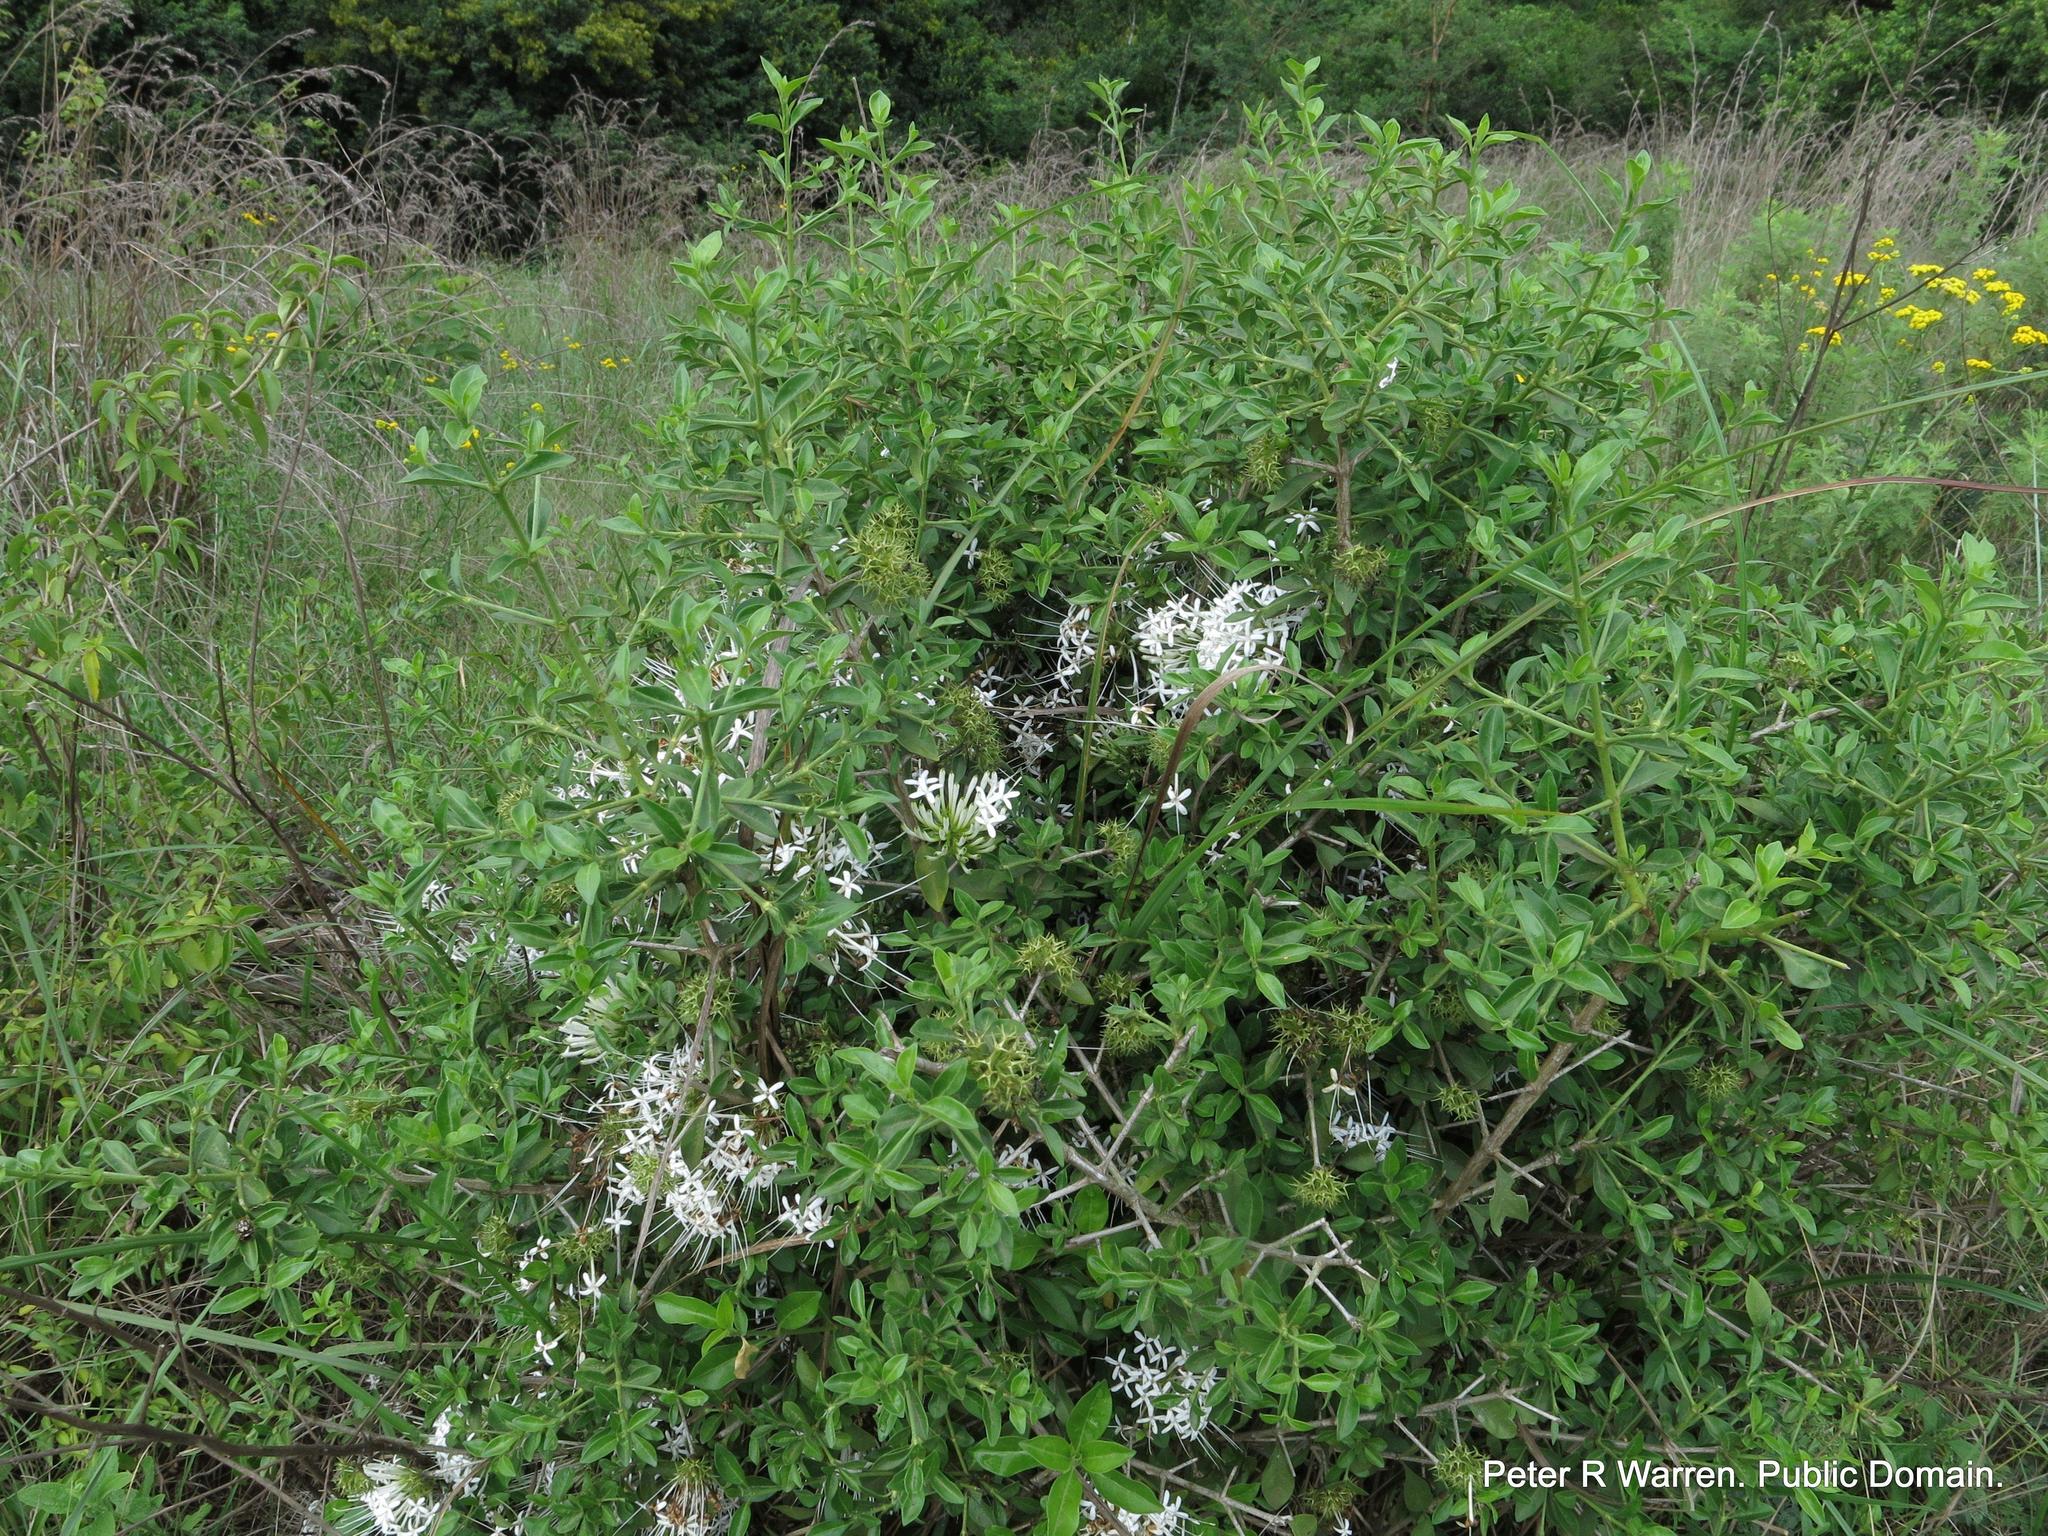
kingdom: Plantae
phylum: Tracheophyta
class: Magnoliopsida
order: Gentianales
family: Rubiaceae
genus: Pavetta
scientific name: Pavetta gracilifolia
